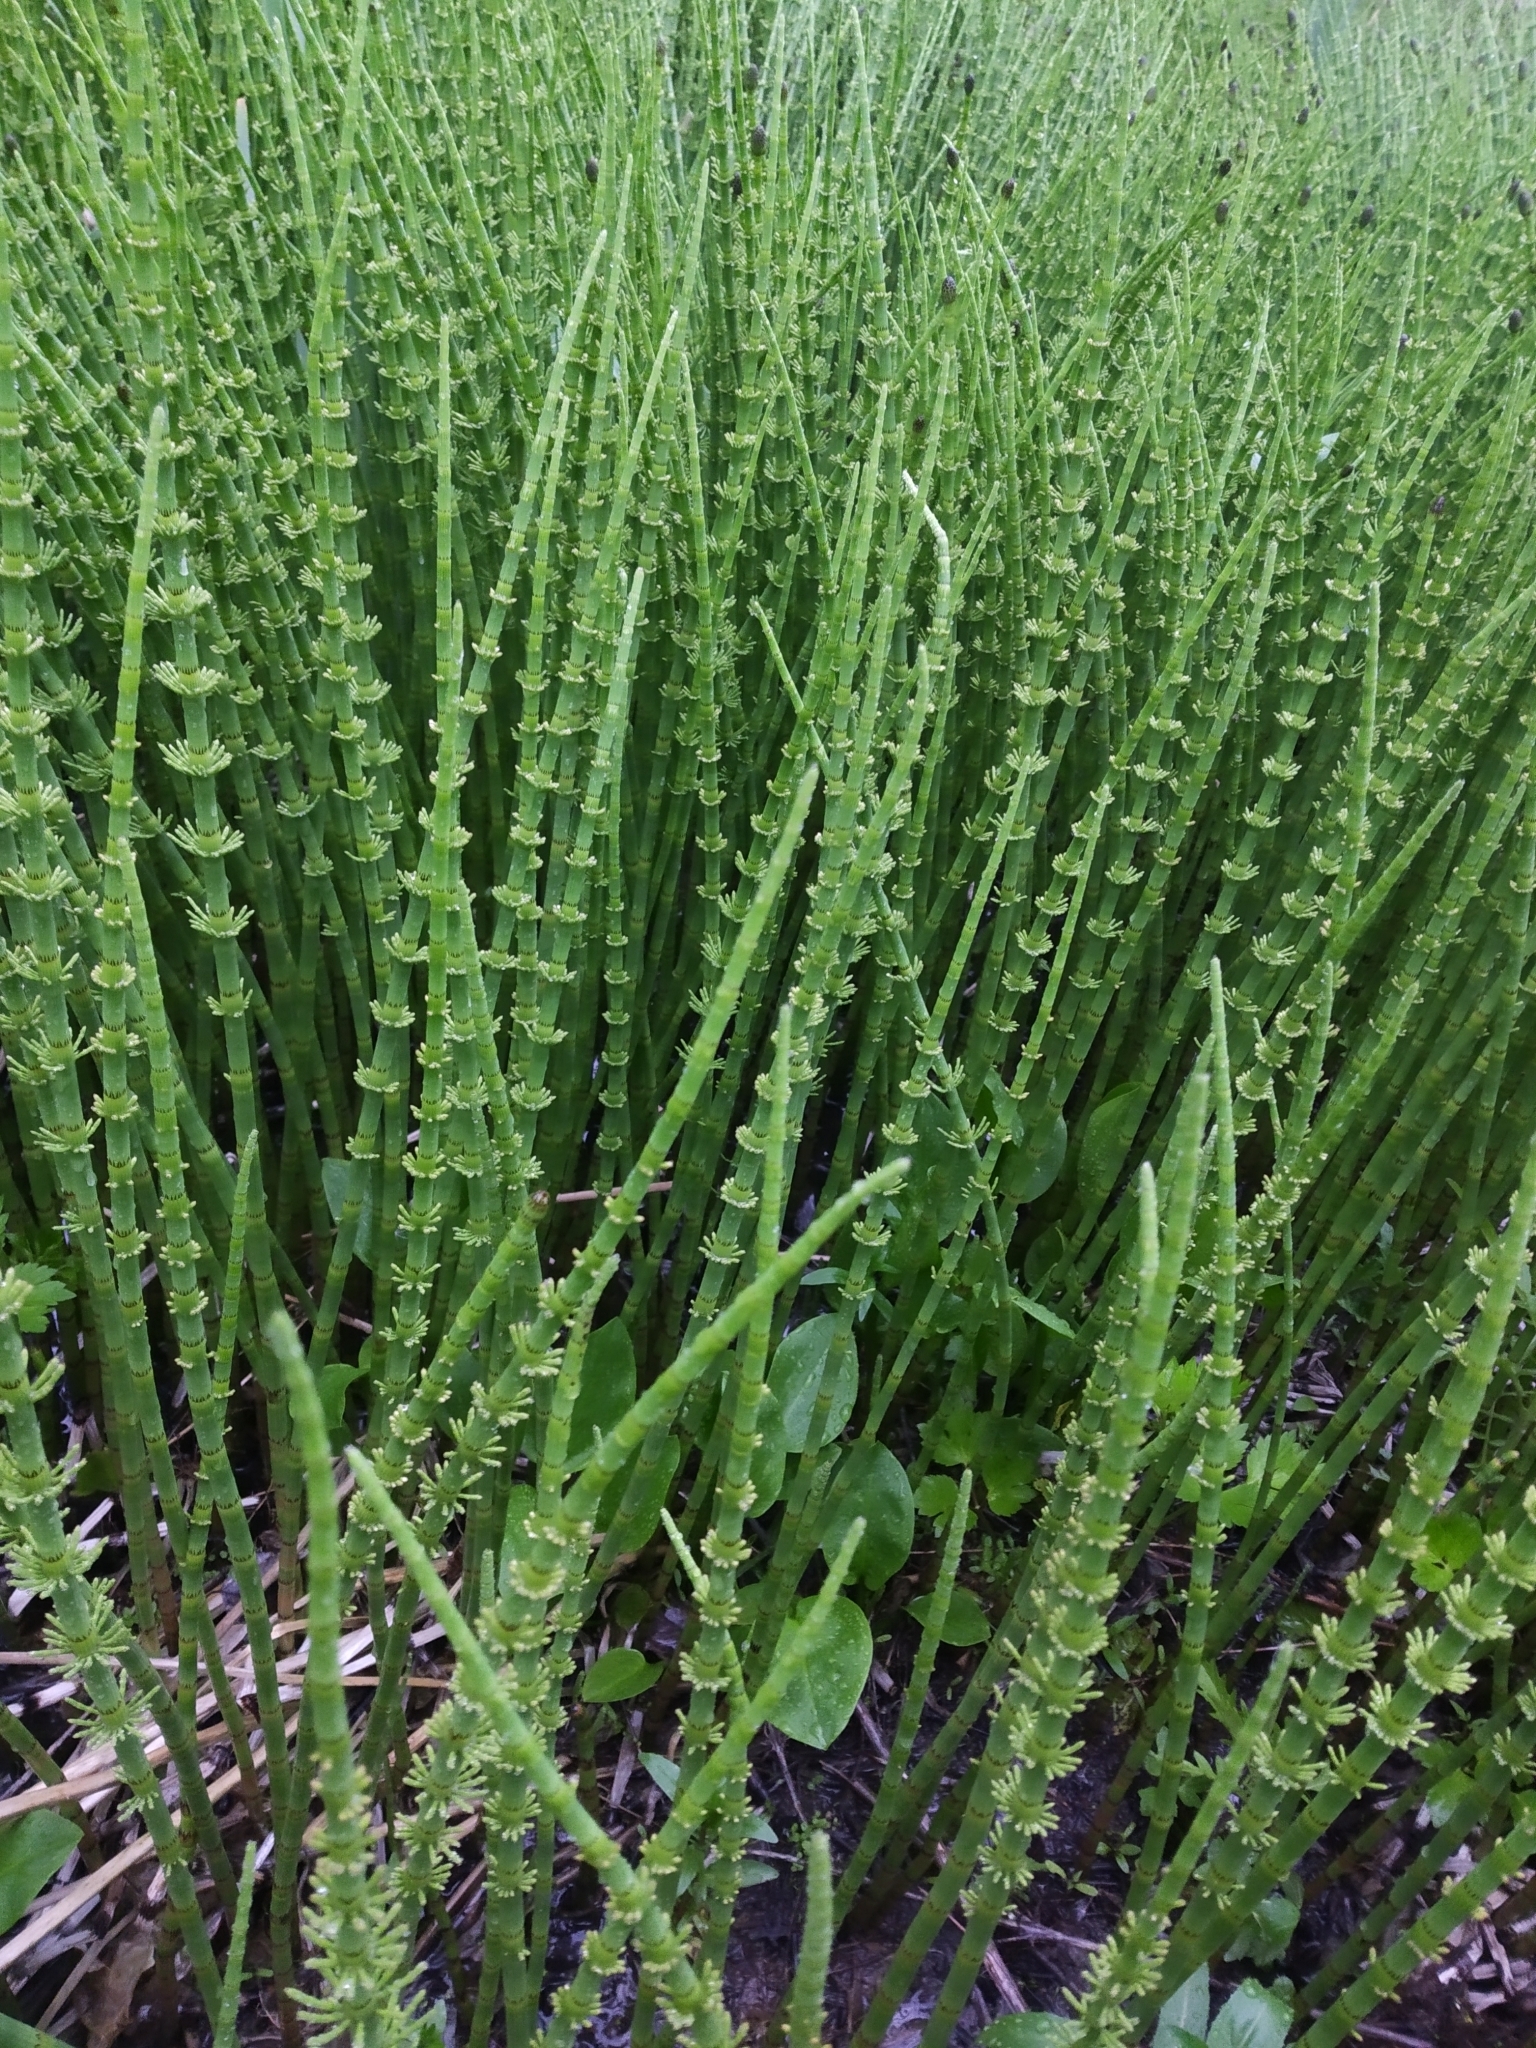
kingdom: Plantae
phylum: Tracheophyta
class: Polypodiopsida
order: Equisetales
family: Equisetaceae
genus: Equisetum
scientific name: Equisetum fluviatile
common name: Water horsetail
